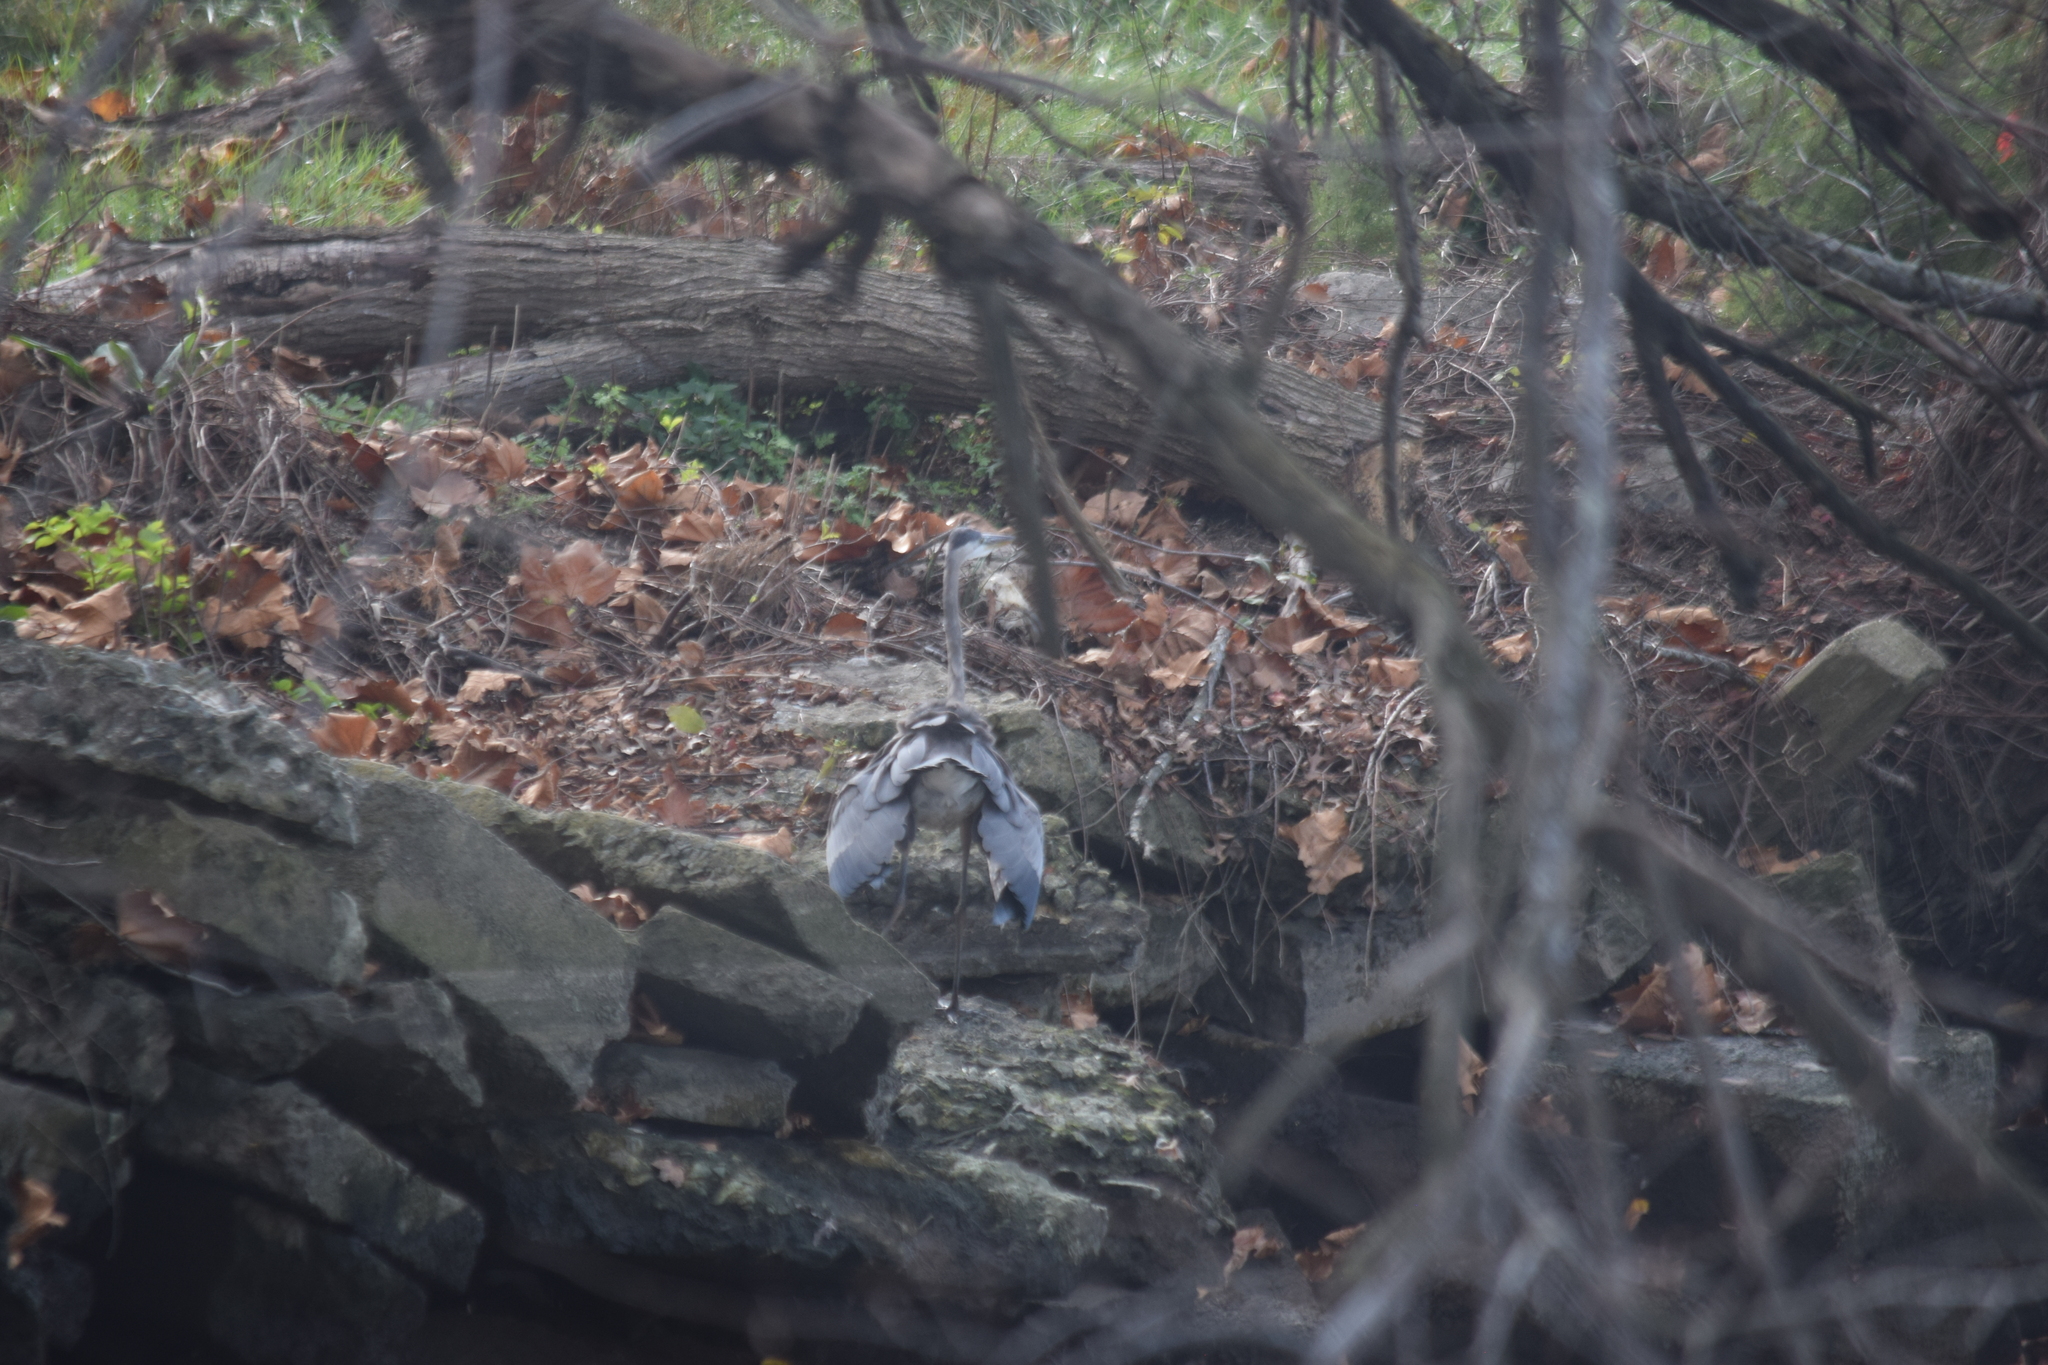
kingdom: Animalia
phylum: Chordata
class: Aves
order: Pelecaniformes
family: Ardeidae
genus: Ardea
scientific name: Ardea herodias
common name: Great blue heron
